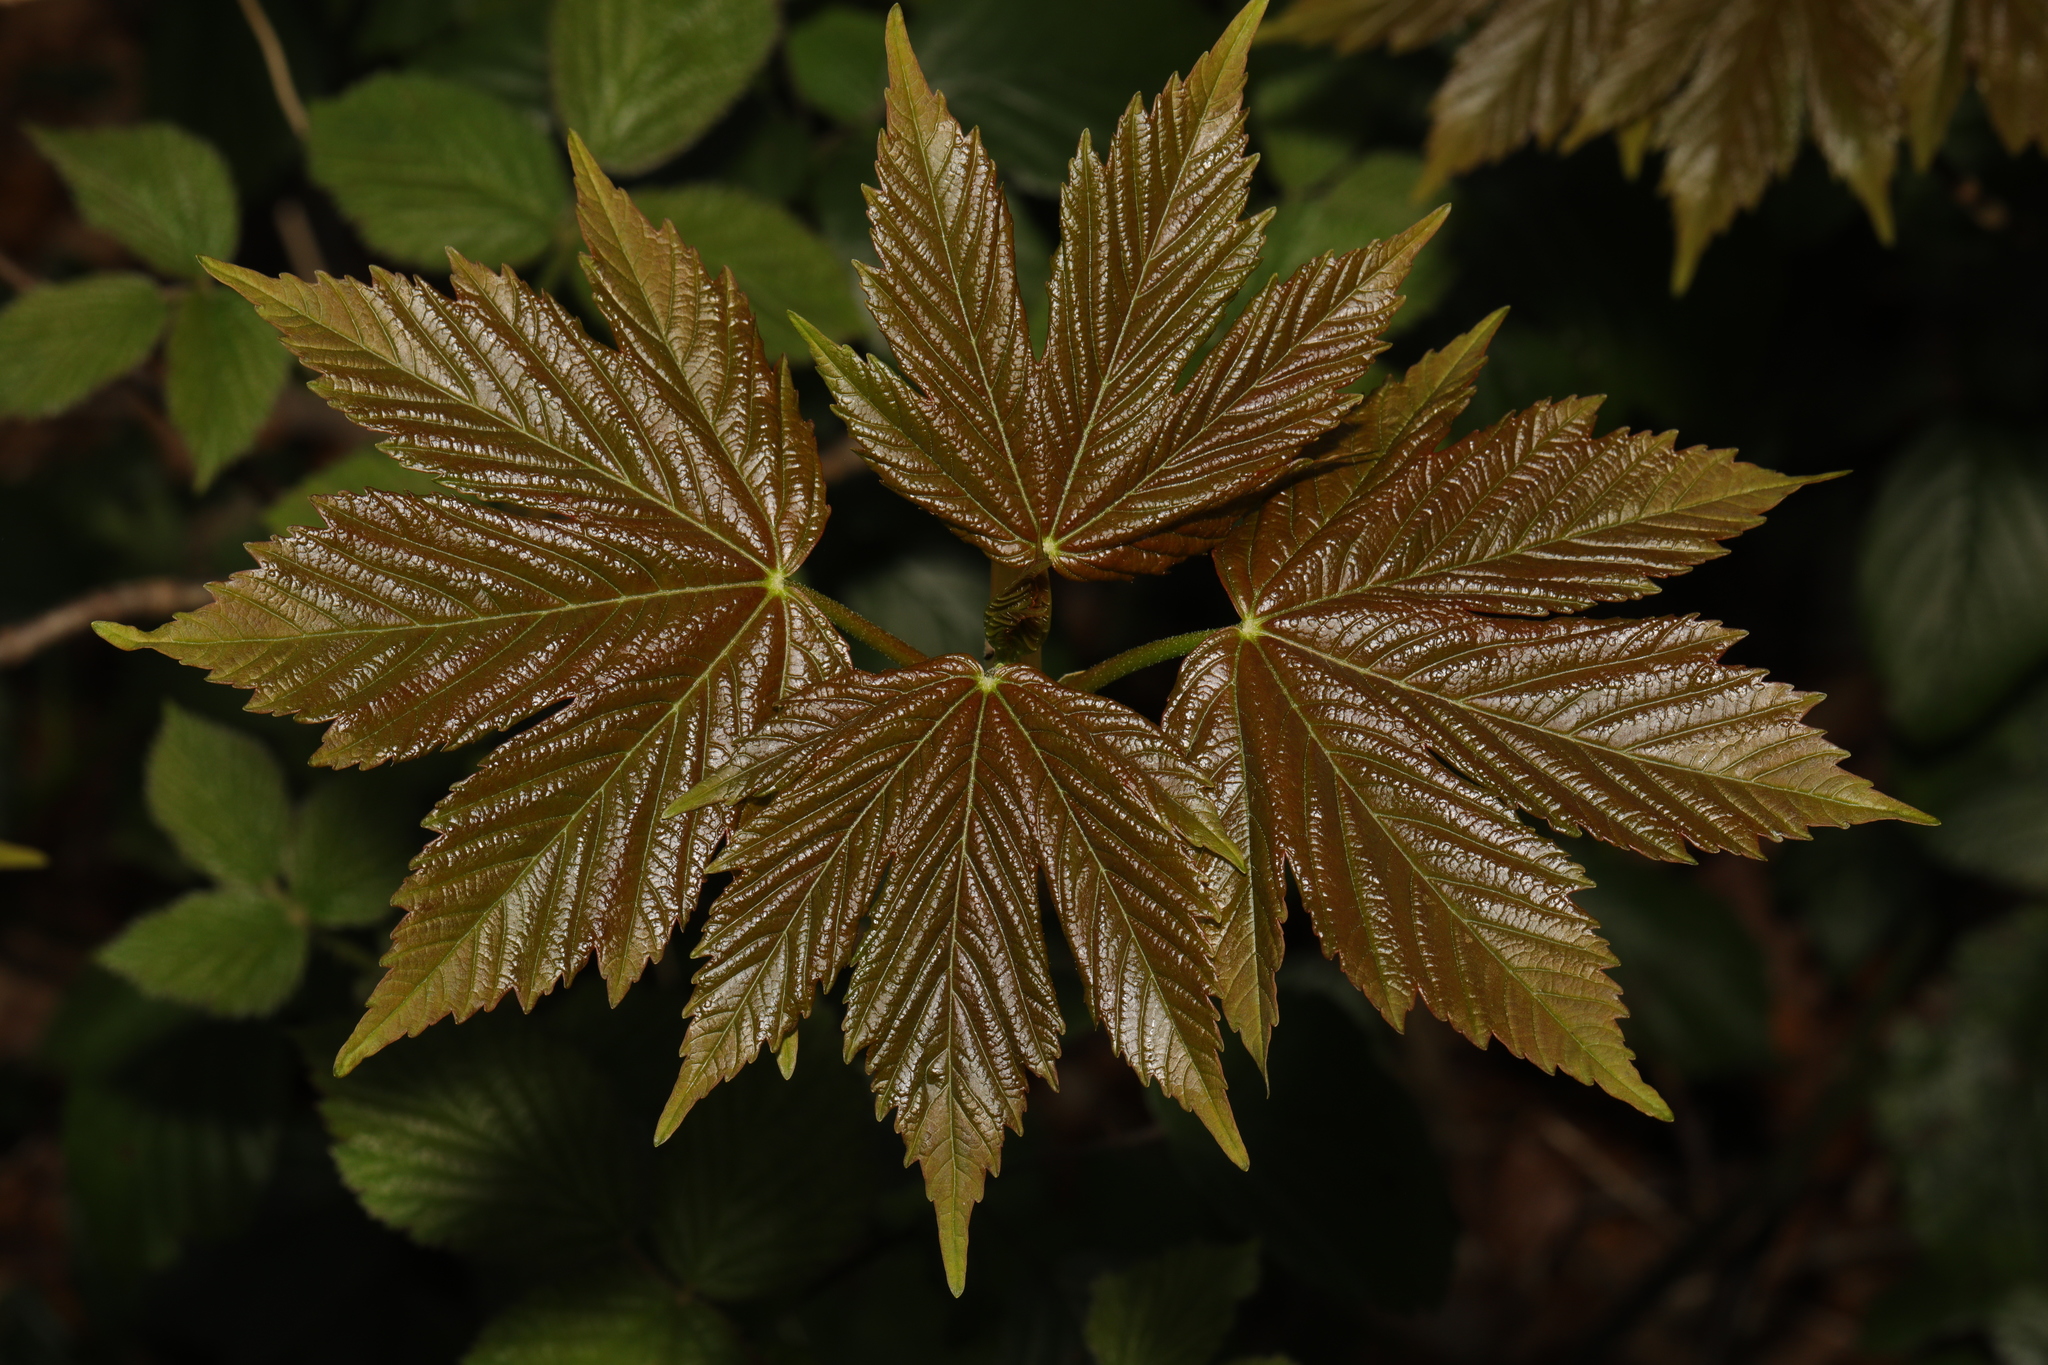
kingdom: Plantae
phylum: Tracheophyta
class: Magnoliopsida
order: Sapindales
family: Sapindaceae
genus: Acer
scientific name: Acer pseudoplatanus
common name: Sycamore
